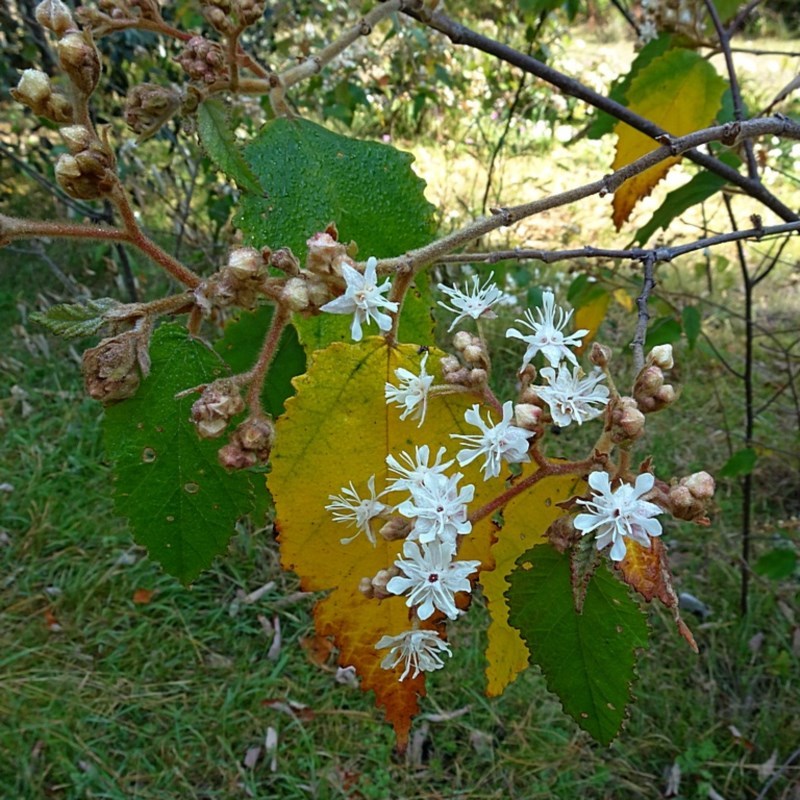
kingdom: Plantae
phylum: Tracheophyta
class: Magnoliopsida
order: Malvales
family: Malvaceae
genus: Androcalva
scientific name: Androcalva rossii
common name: Native hemp
